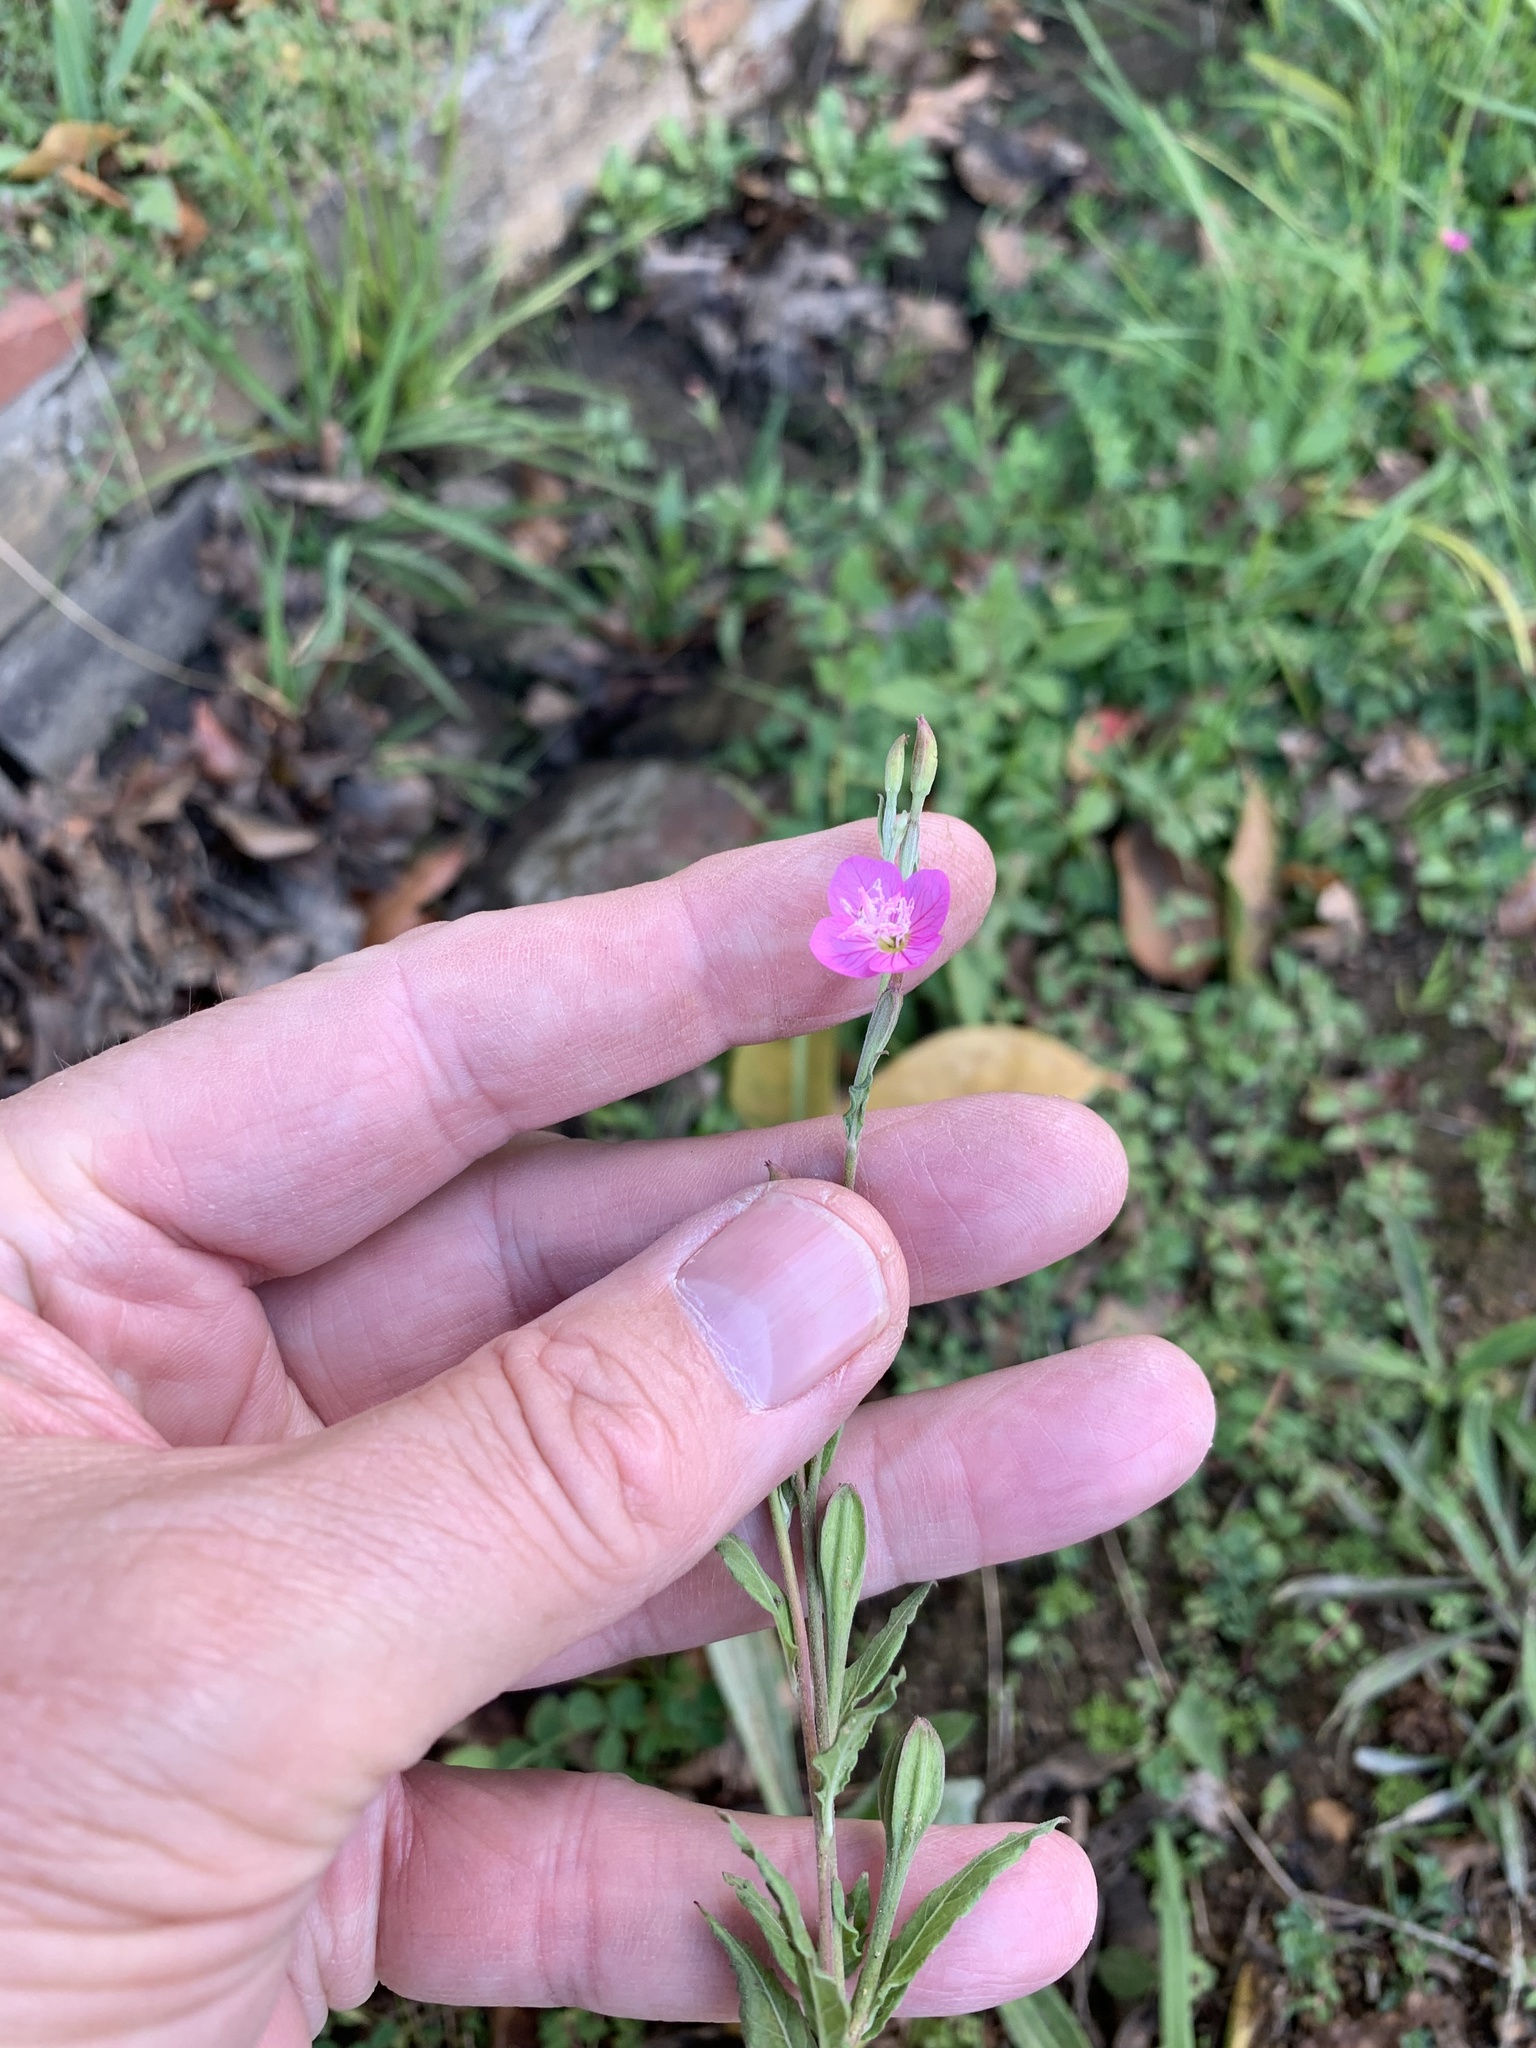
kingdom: Plantae
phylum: Tracheophyta
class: Magnoliopsida
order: Myrtales
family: Onagraceae
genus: Oenothera
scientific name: Oenothera rosea
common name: Rosy evening-primrose
